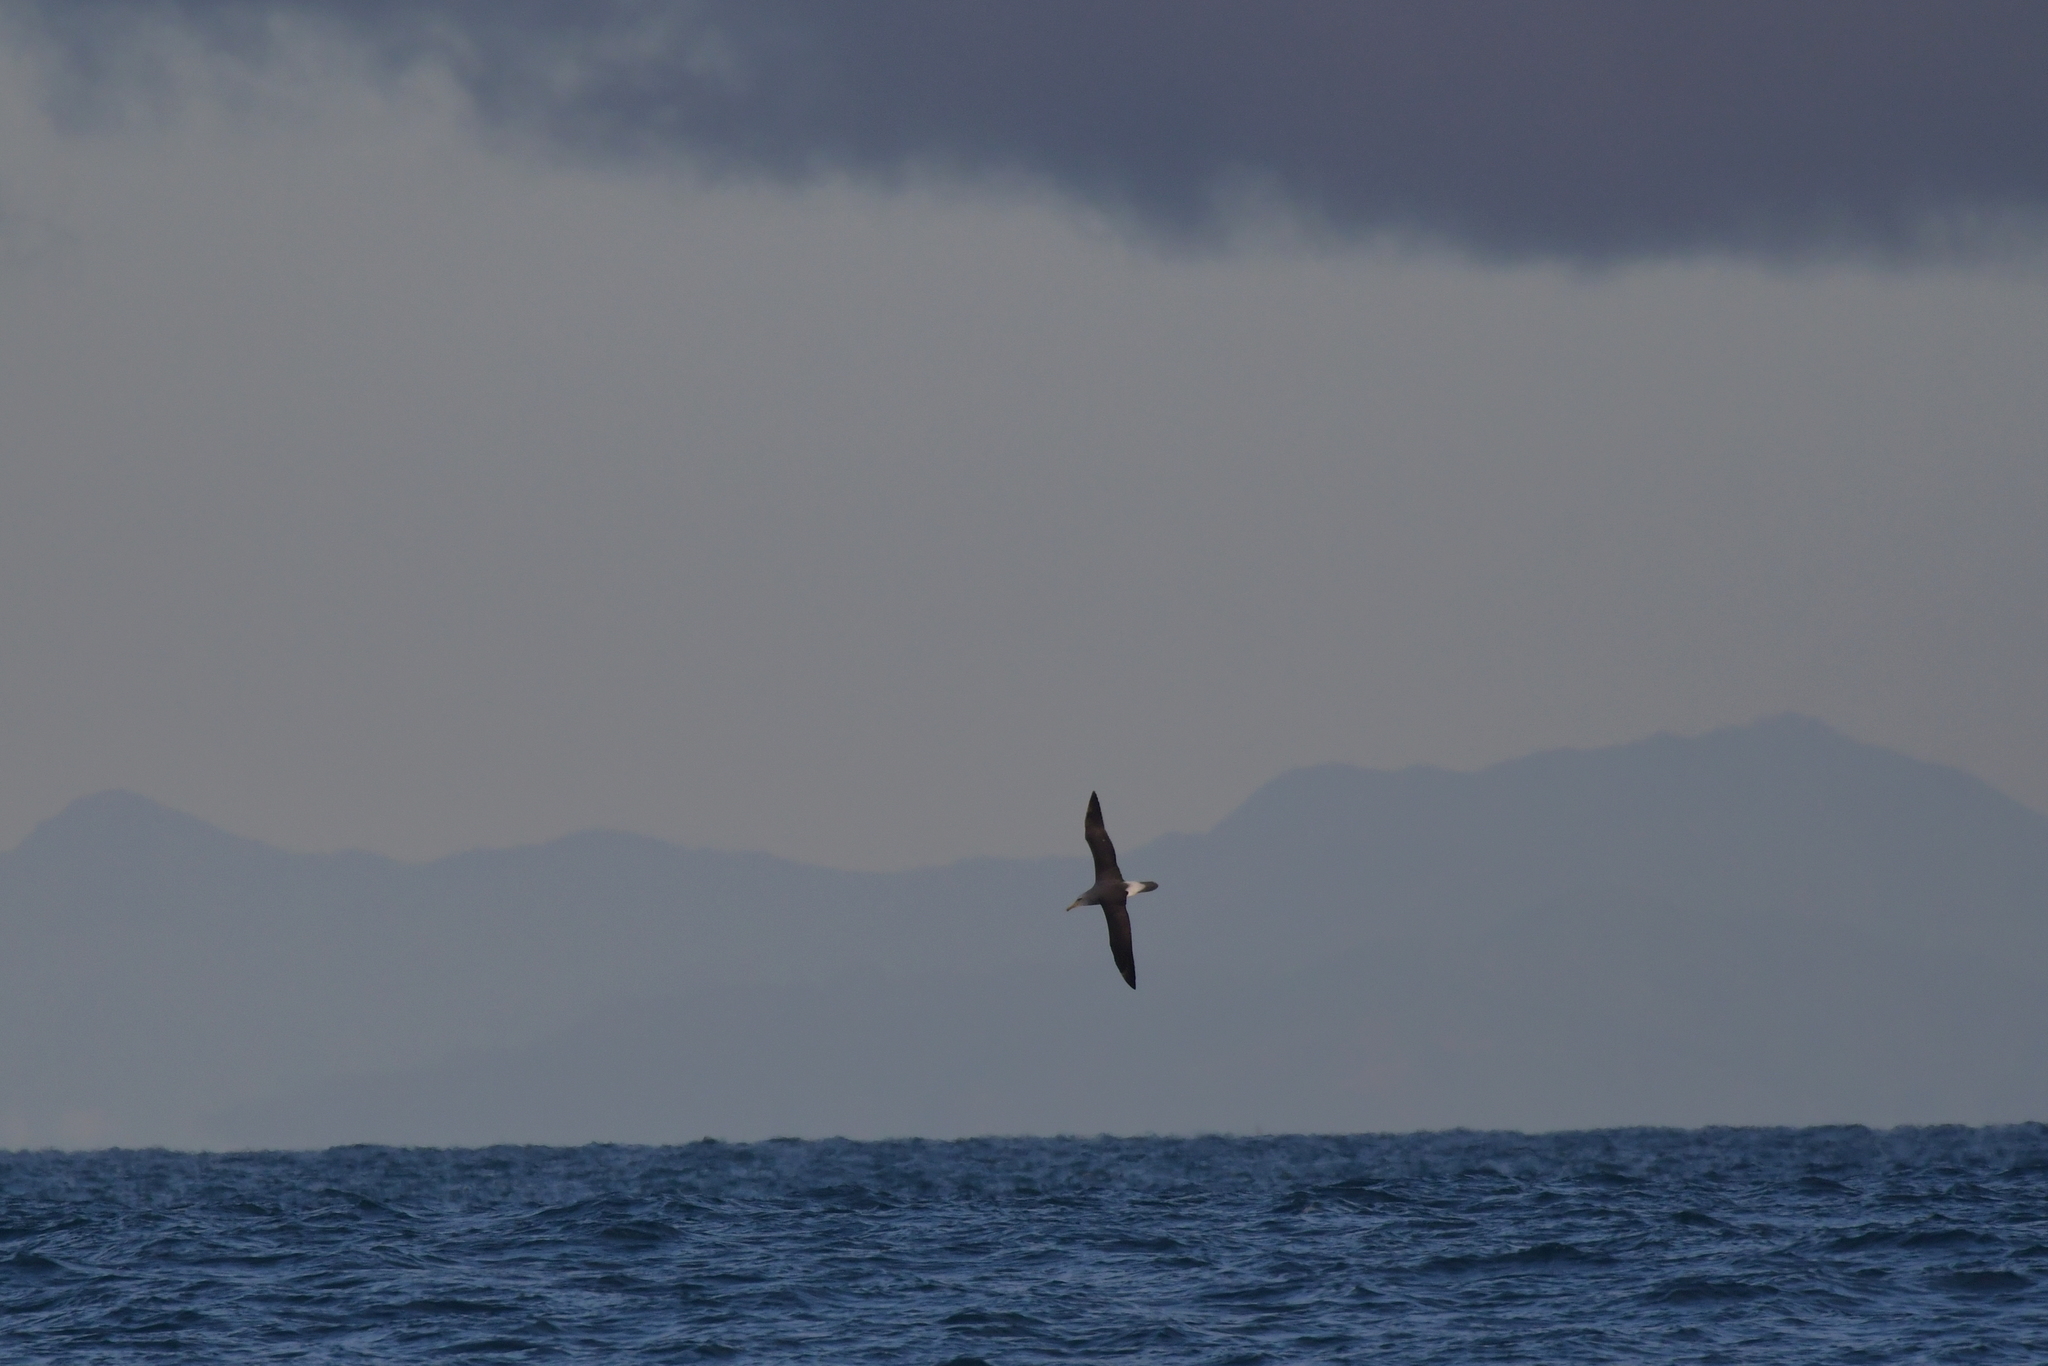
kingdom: Animalia
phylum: Chordata
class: Aves
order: Procellariiformes
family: Diomedeidae
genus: Thalassarche
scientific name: Thalassarche salvini
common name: Salvin's albatross
